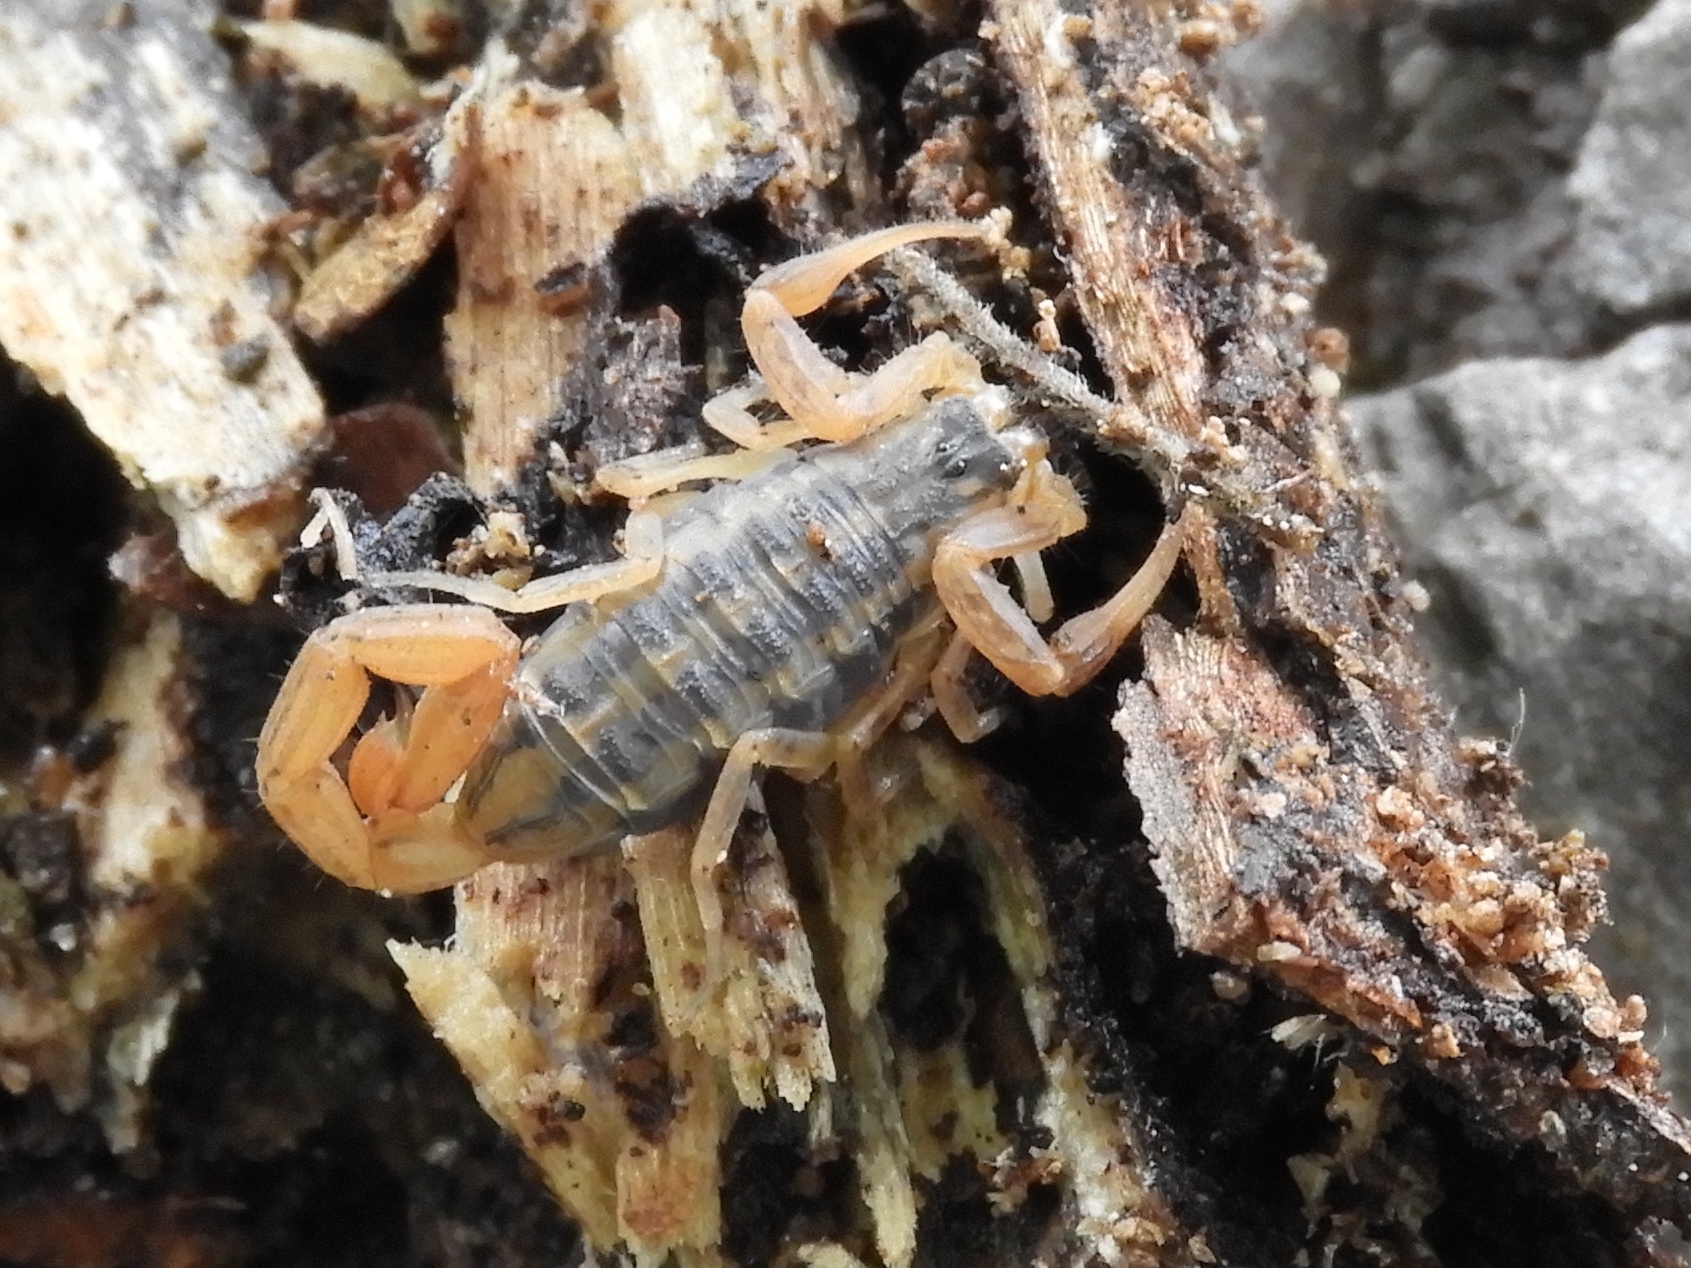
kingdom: Animalia
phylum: Arthropoda
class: Arachnida
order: Scorpiones
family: Buthidae
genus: Centruroides
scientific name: Centruroides baldazoi
